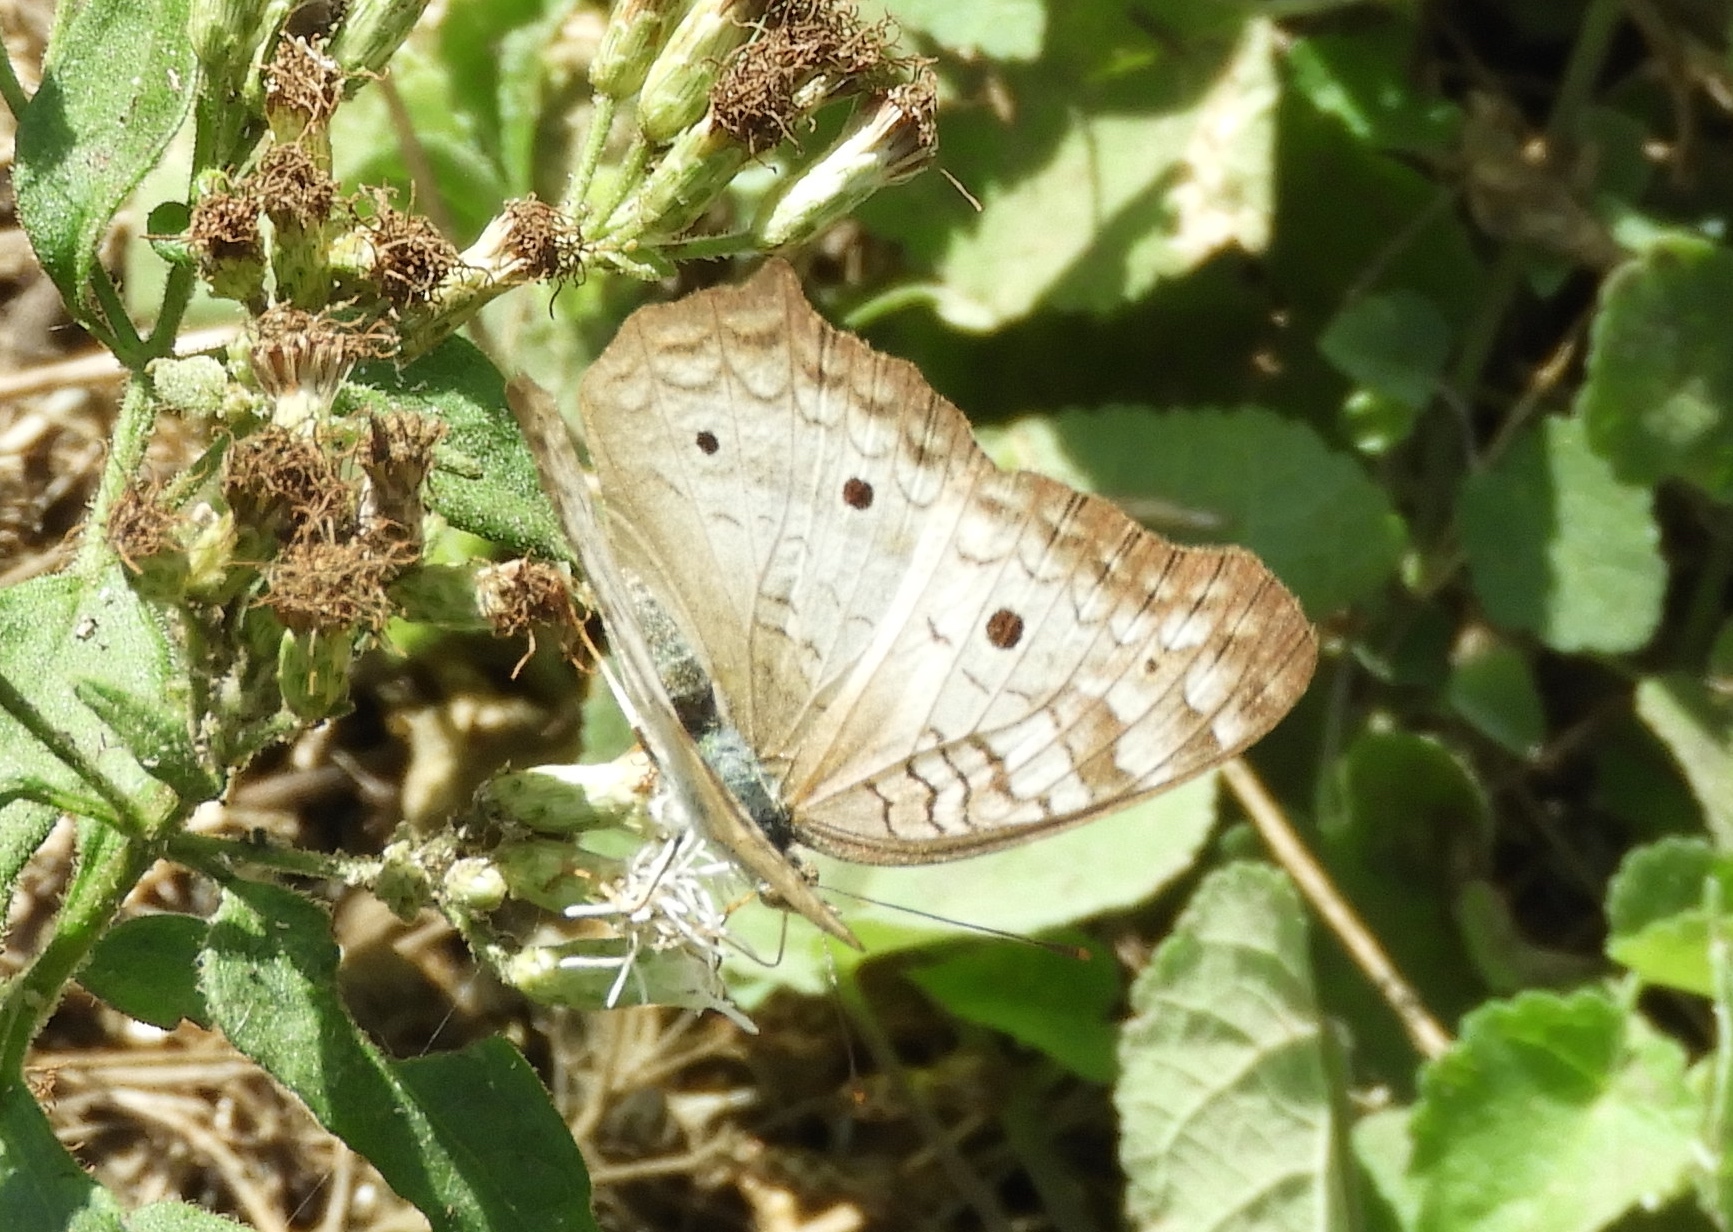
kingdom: Animalia
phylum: Arthropoda
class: Insecta
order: Lepidoptera
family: Nymphalidae
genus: Anartia
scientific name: Anartia jatrophae
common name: White peacock
